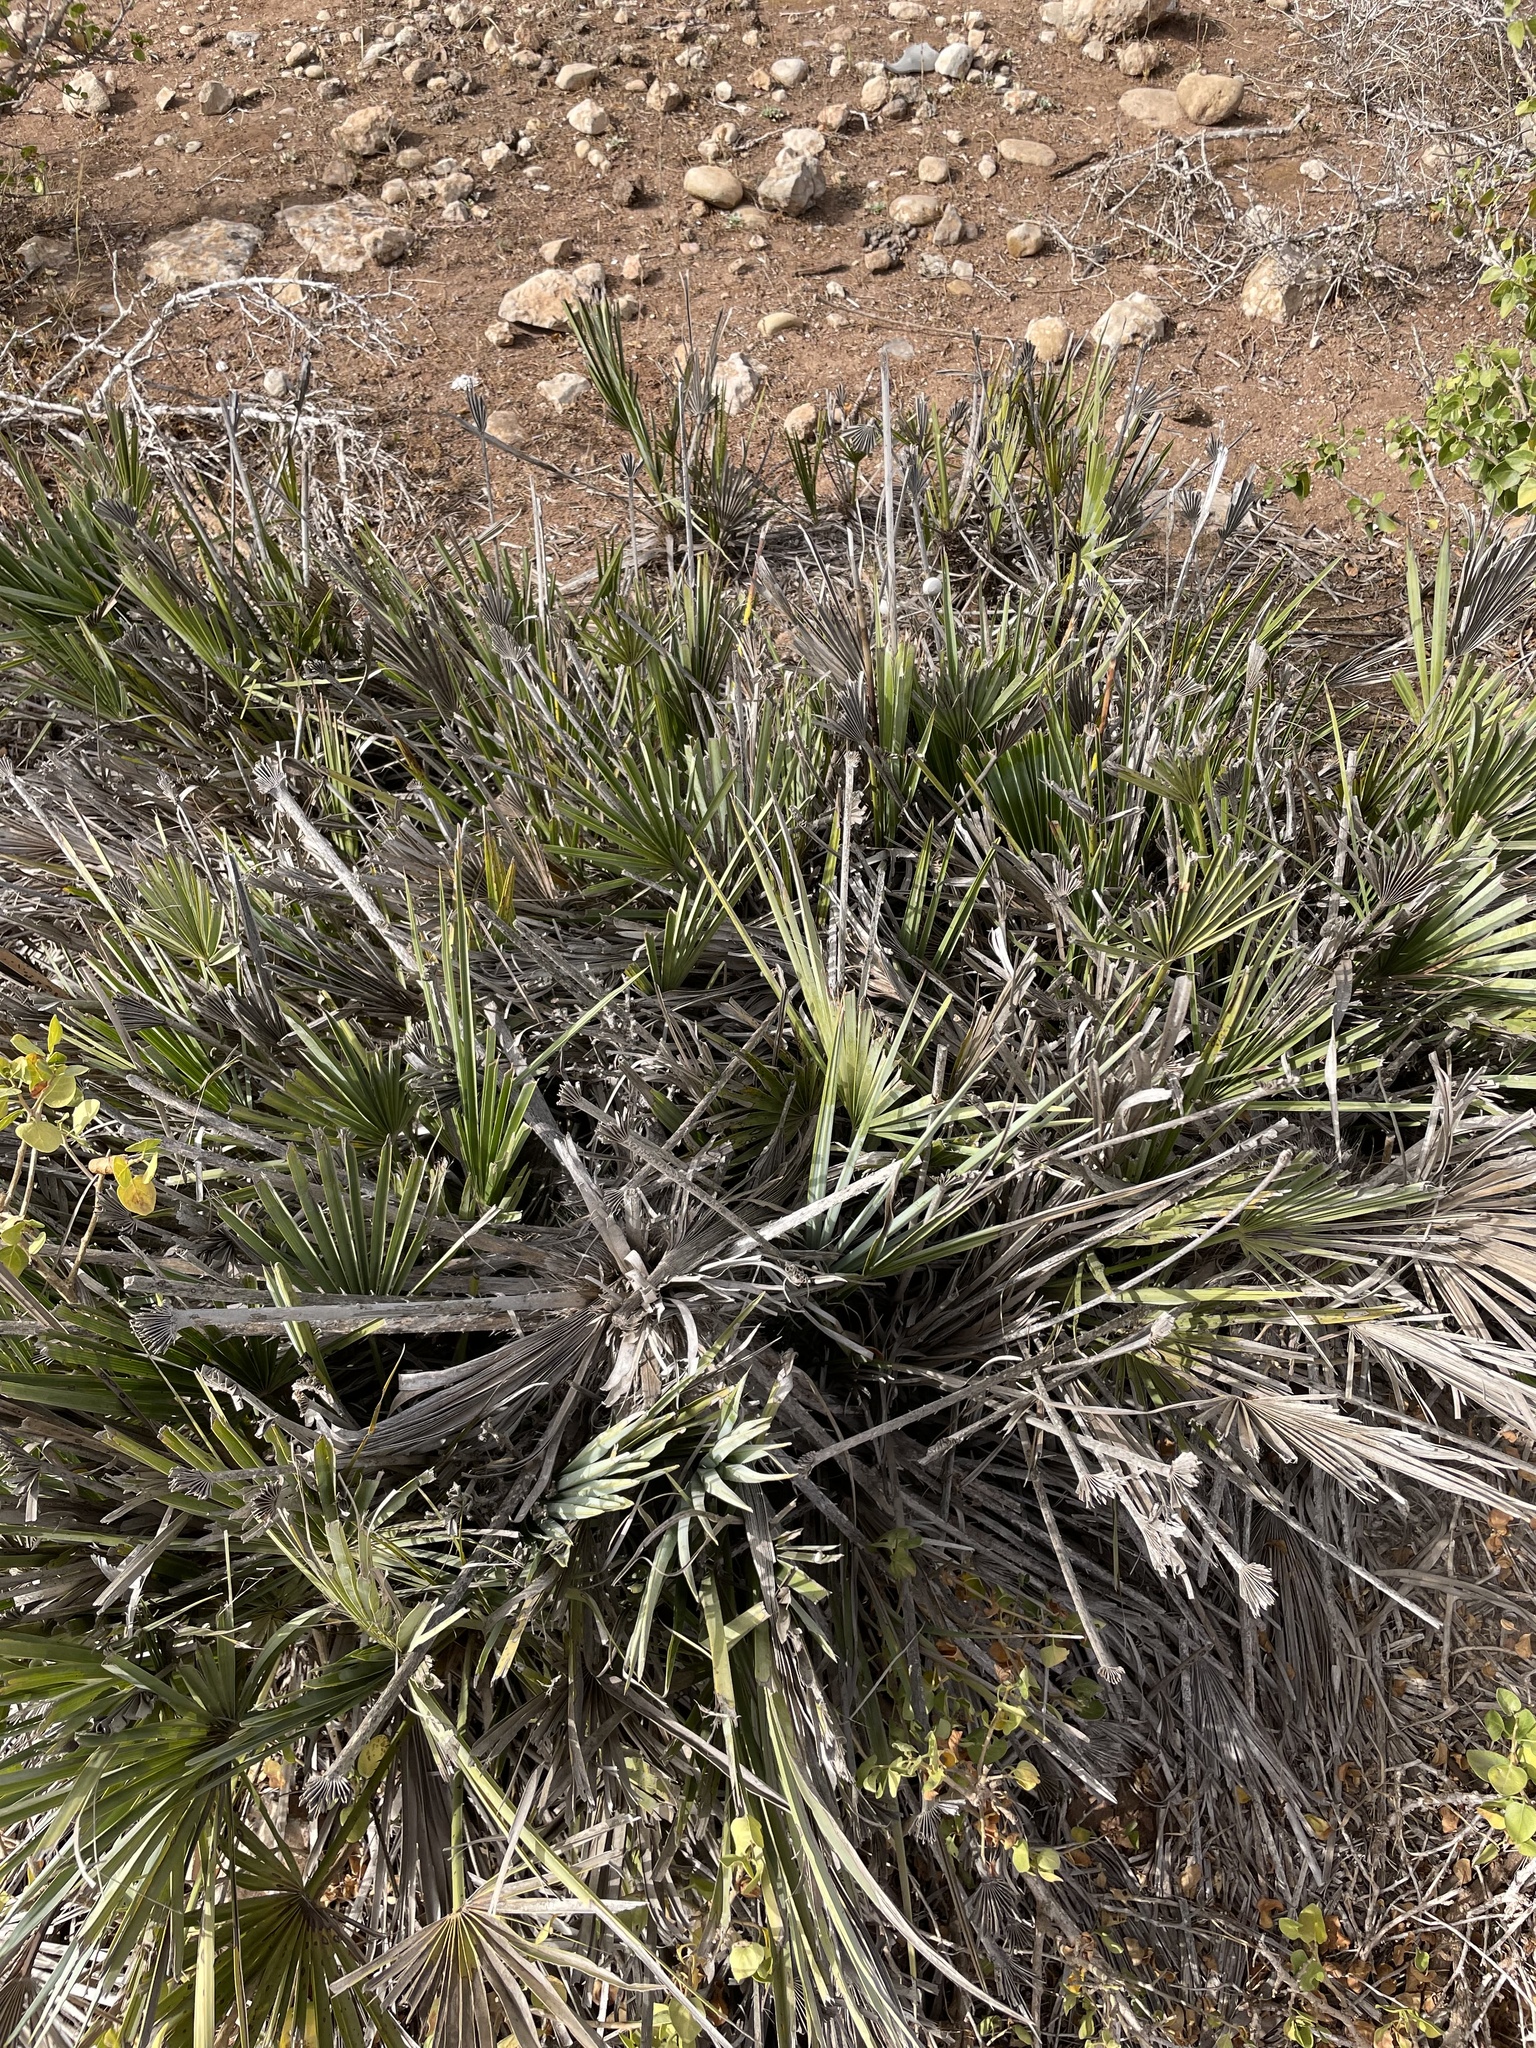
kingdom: Plantae
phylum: Tracheophyta
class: Liliopsida
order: Arecales
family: Arecaceae
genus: Chamaerops
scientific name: Chamaerops humilis
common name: Dwarf fan palm
